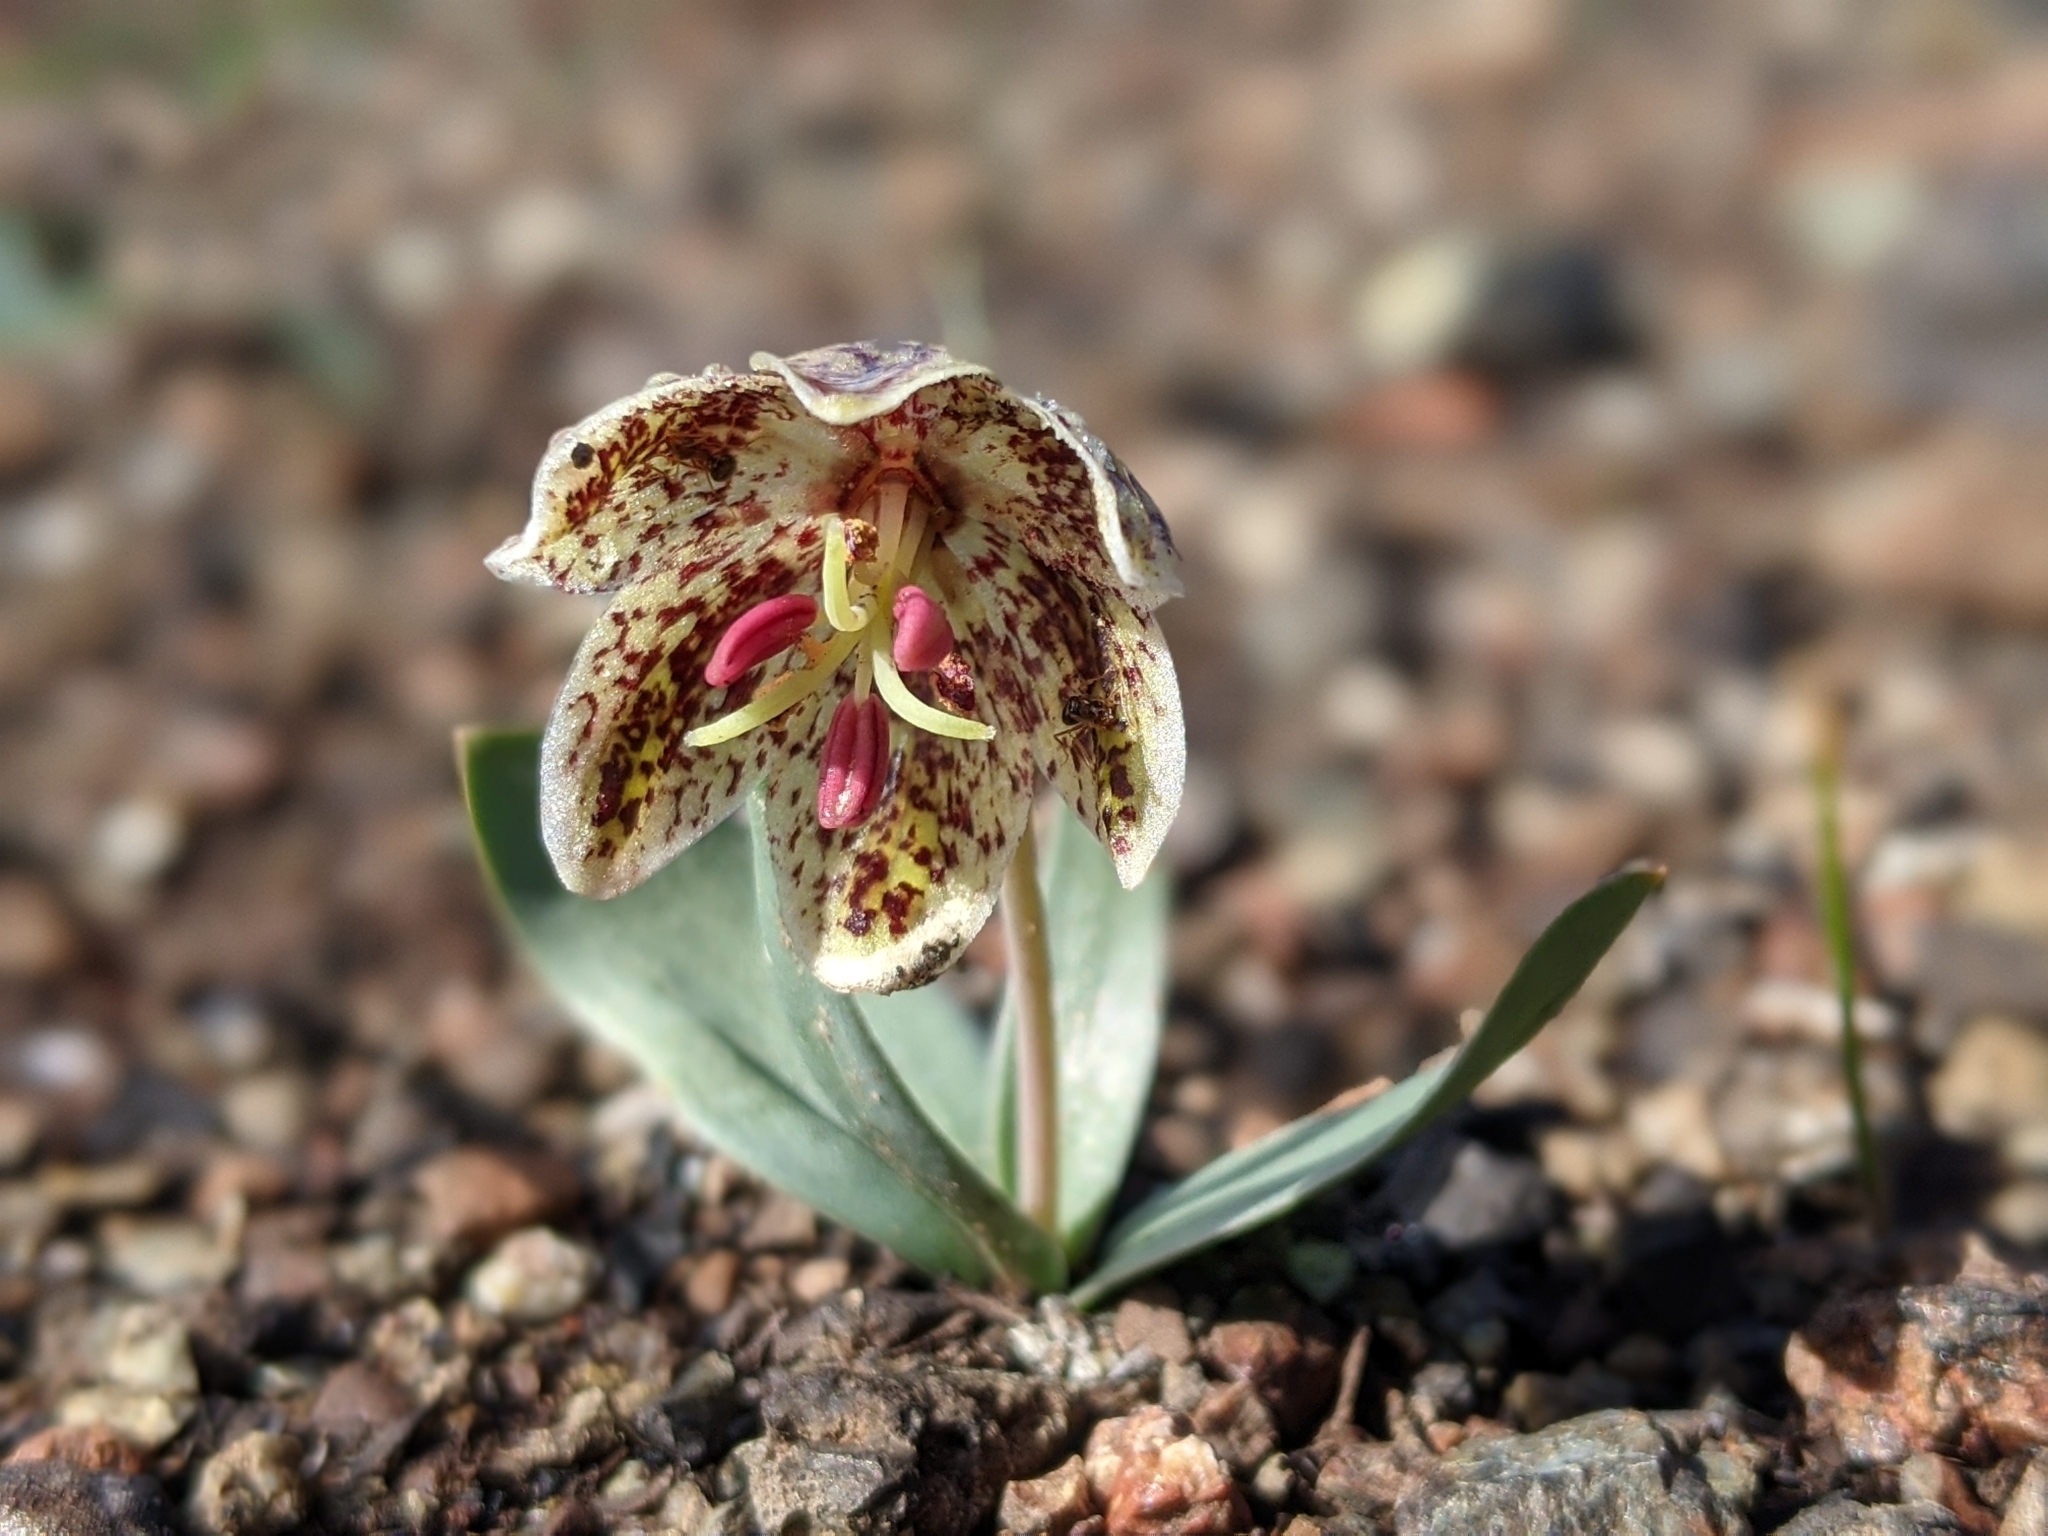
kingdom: Plantae
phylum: Tracheophyta
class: Liliopsida
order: Liliales
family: Liliaceae
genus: Fritillaria
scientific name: Fritillaria purdyi
